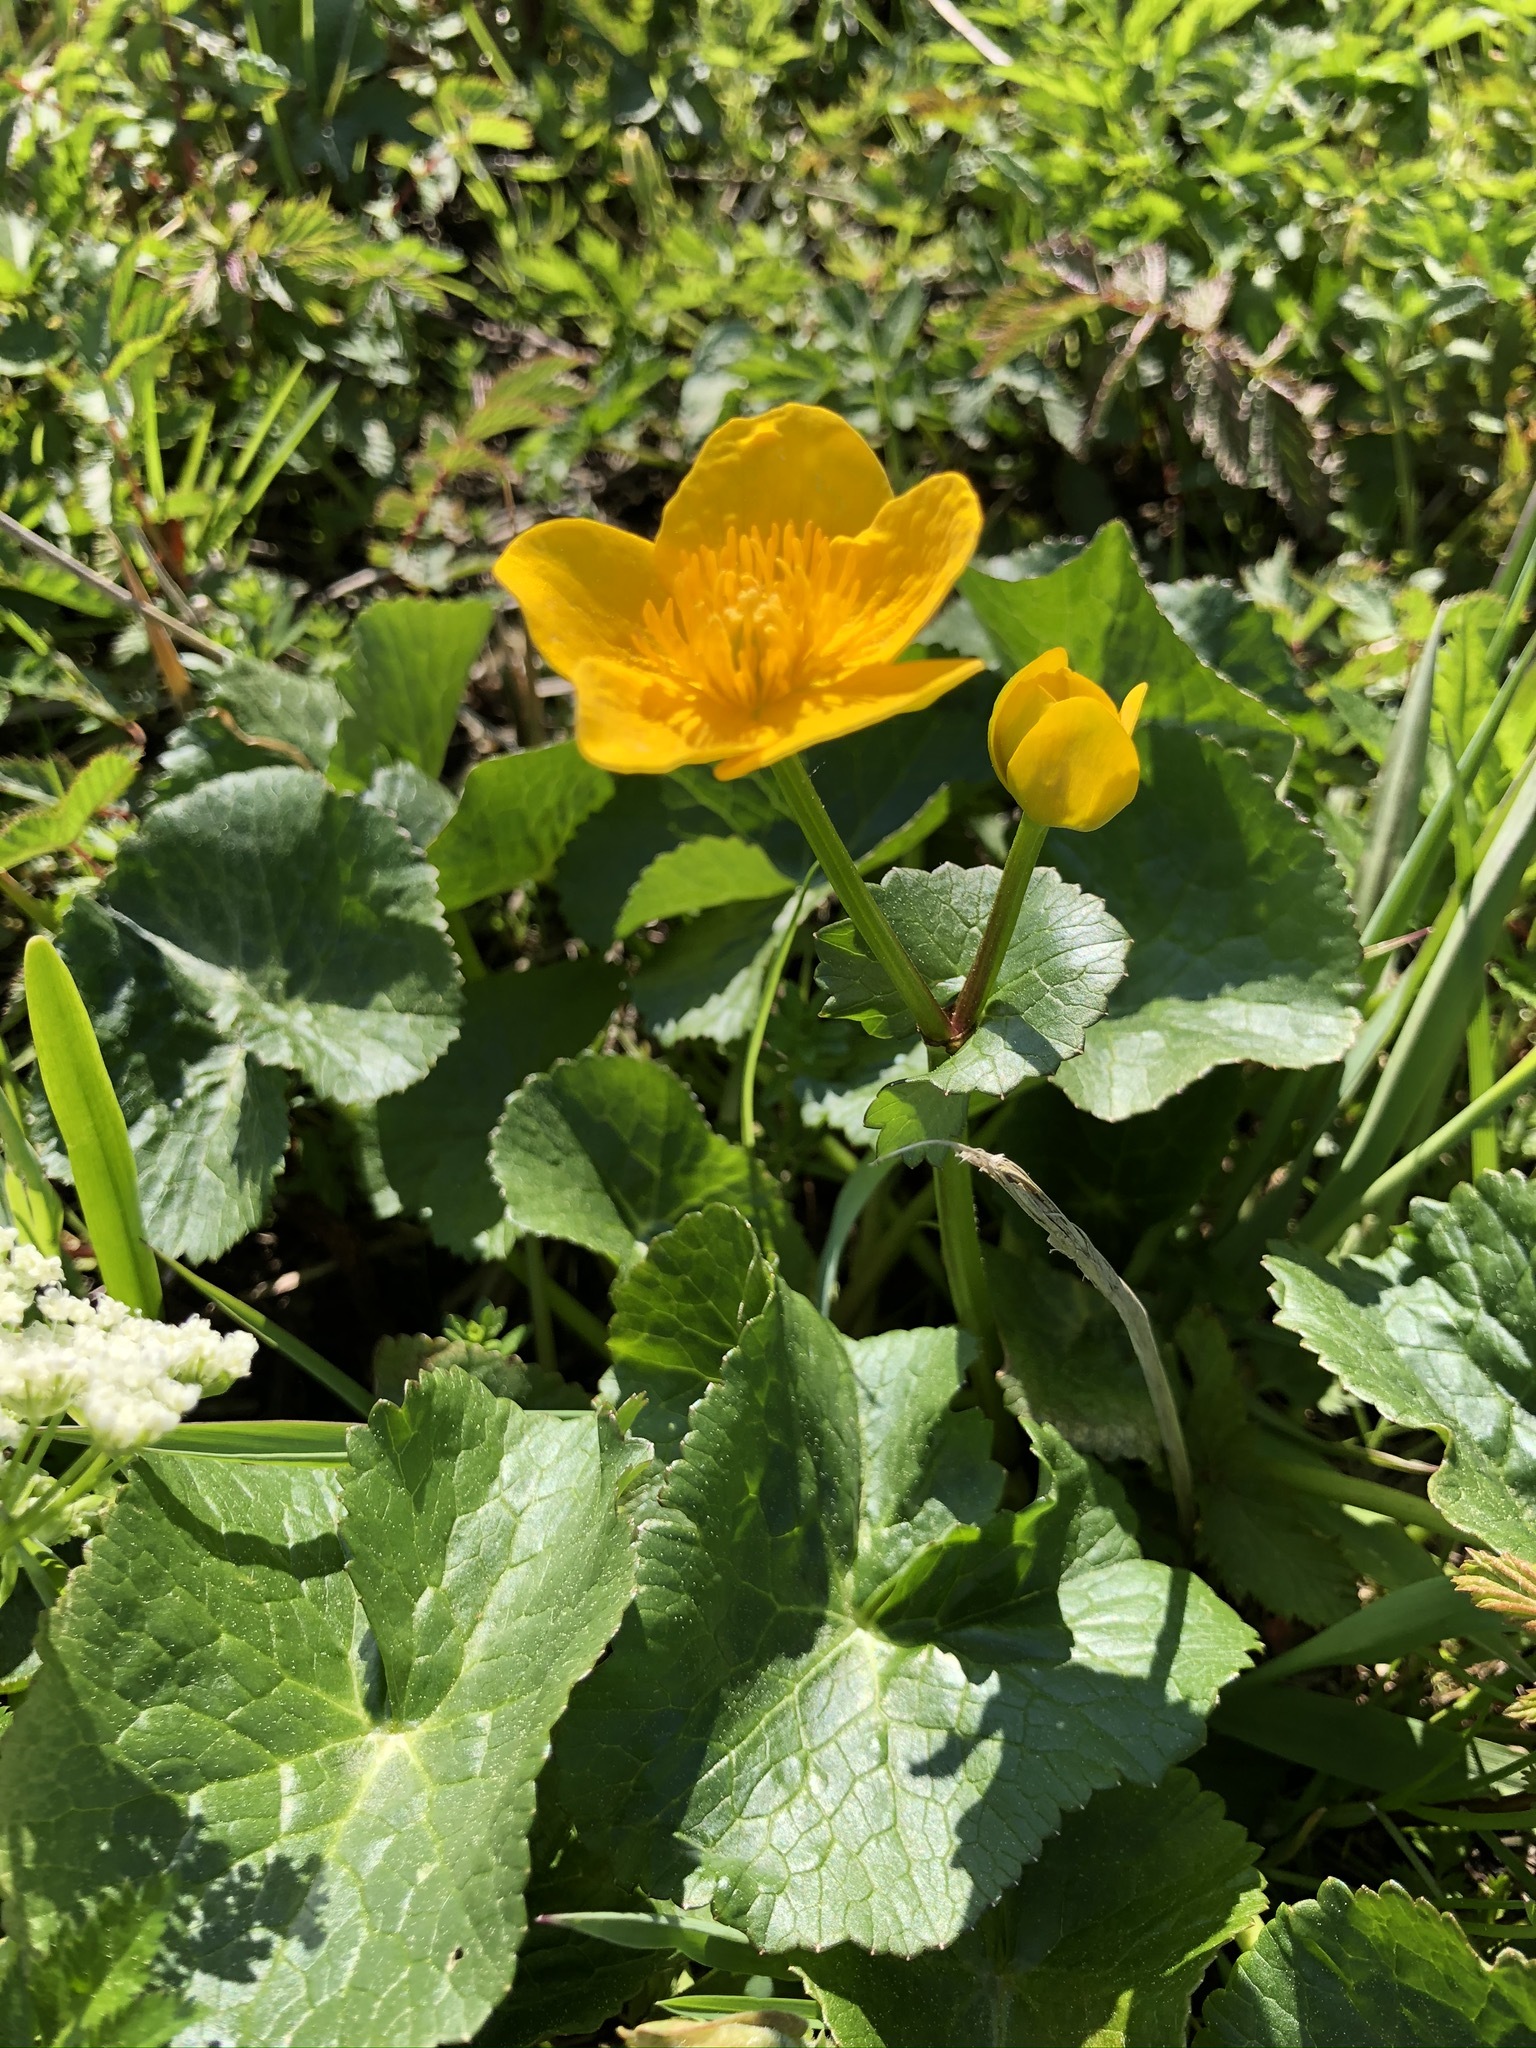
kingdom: Plantae
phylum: Tracheophyta
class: Magnoliopsida
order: Ranunculales
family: Ranunculaceae
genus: Caltha
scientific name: Caltha palustris
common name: Marsh marigold
